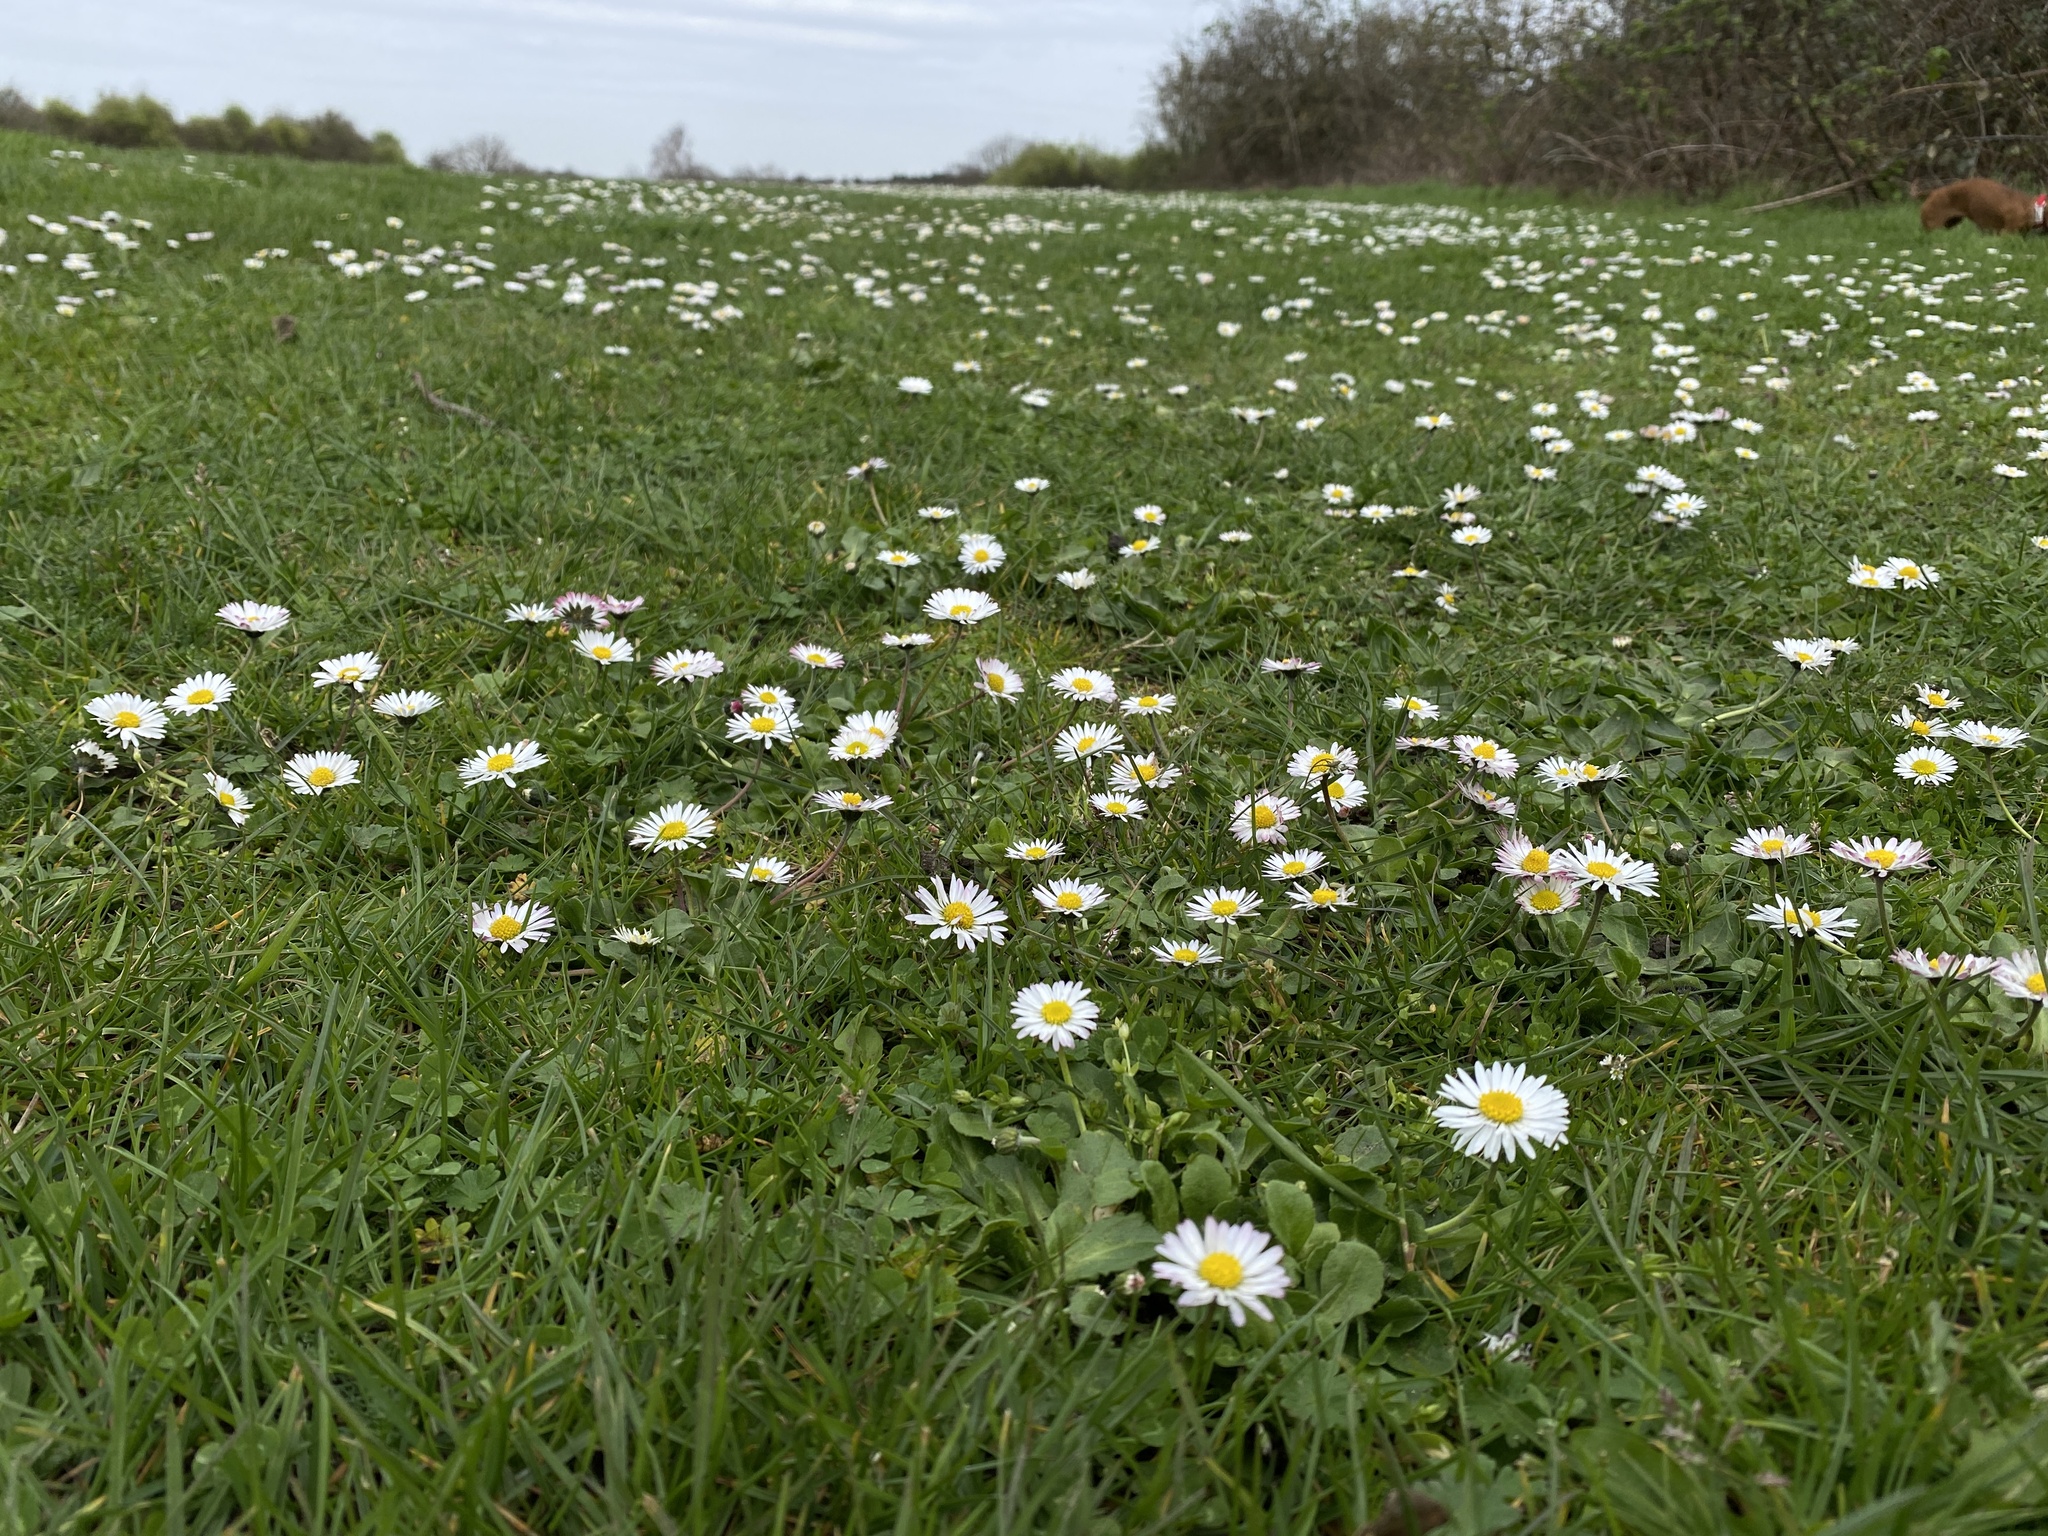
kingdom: Plantae
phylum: Tracheophyta
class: Magnoliopsida
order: Asterales
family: Asteraceae
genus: Bellis
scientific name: Bellis perennis
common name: Lawndaisy
